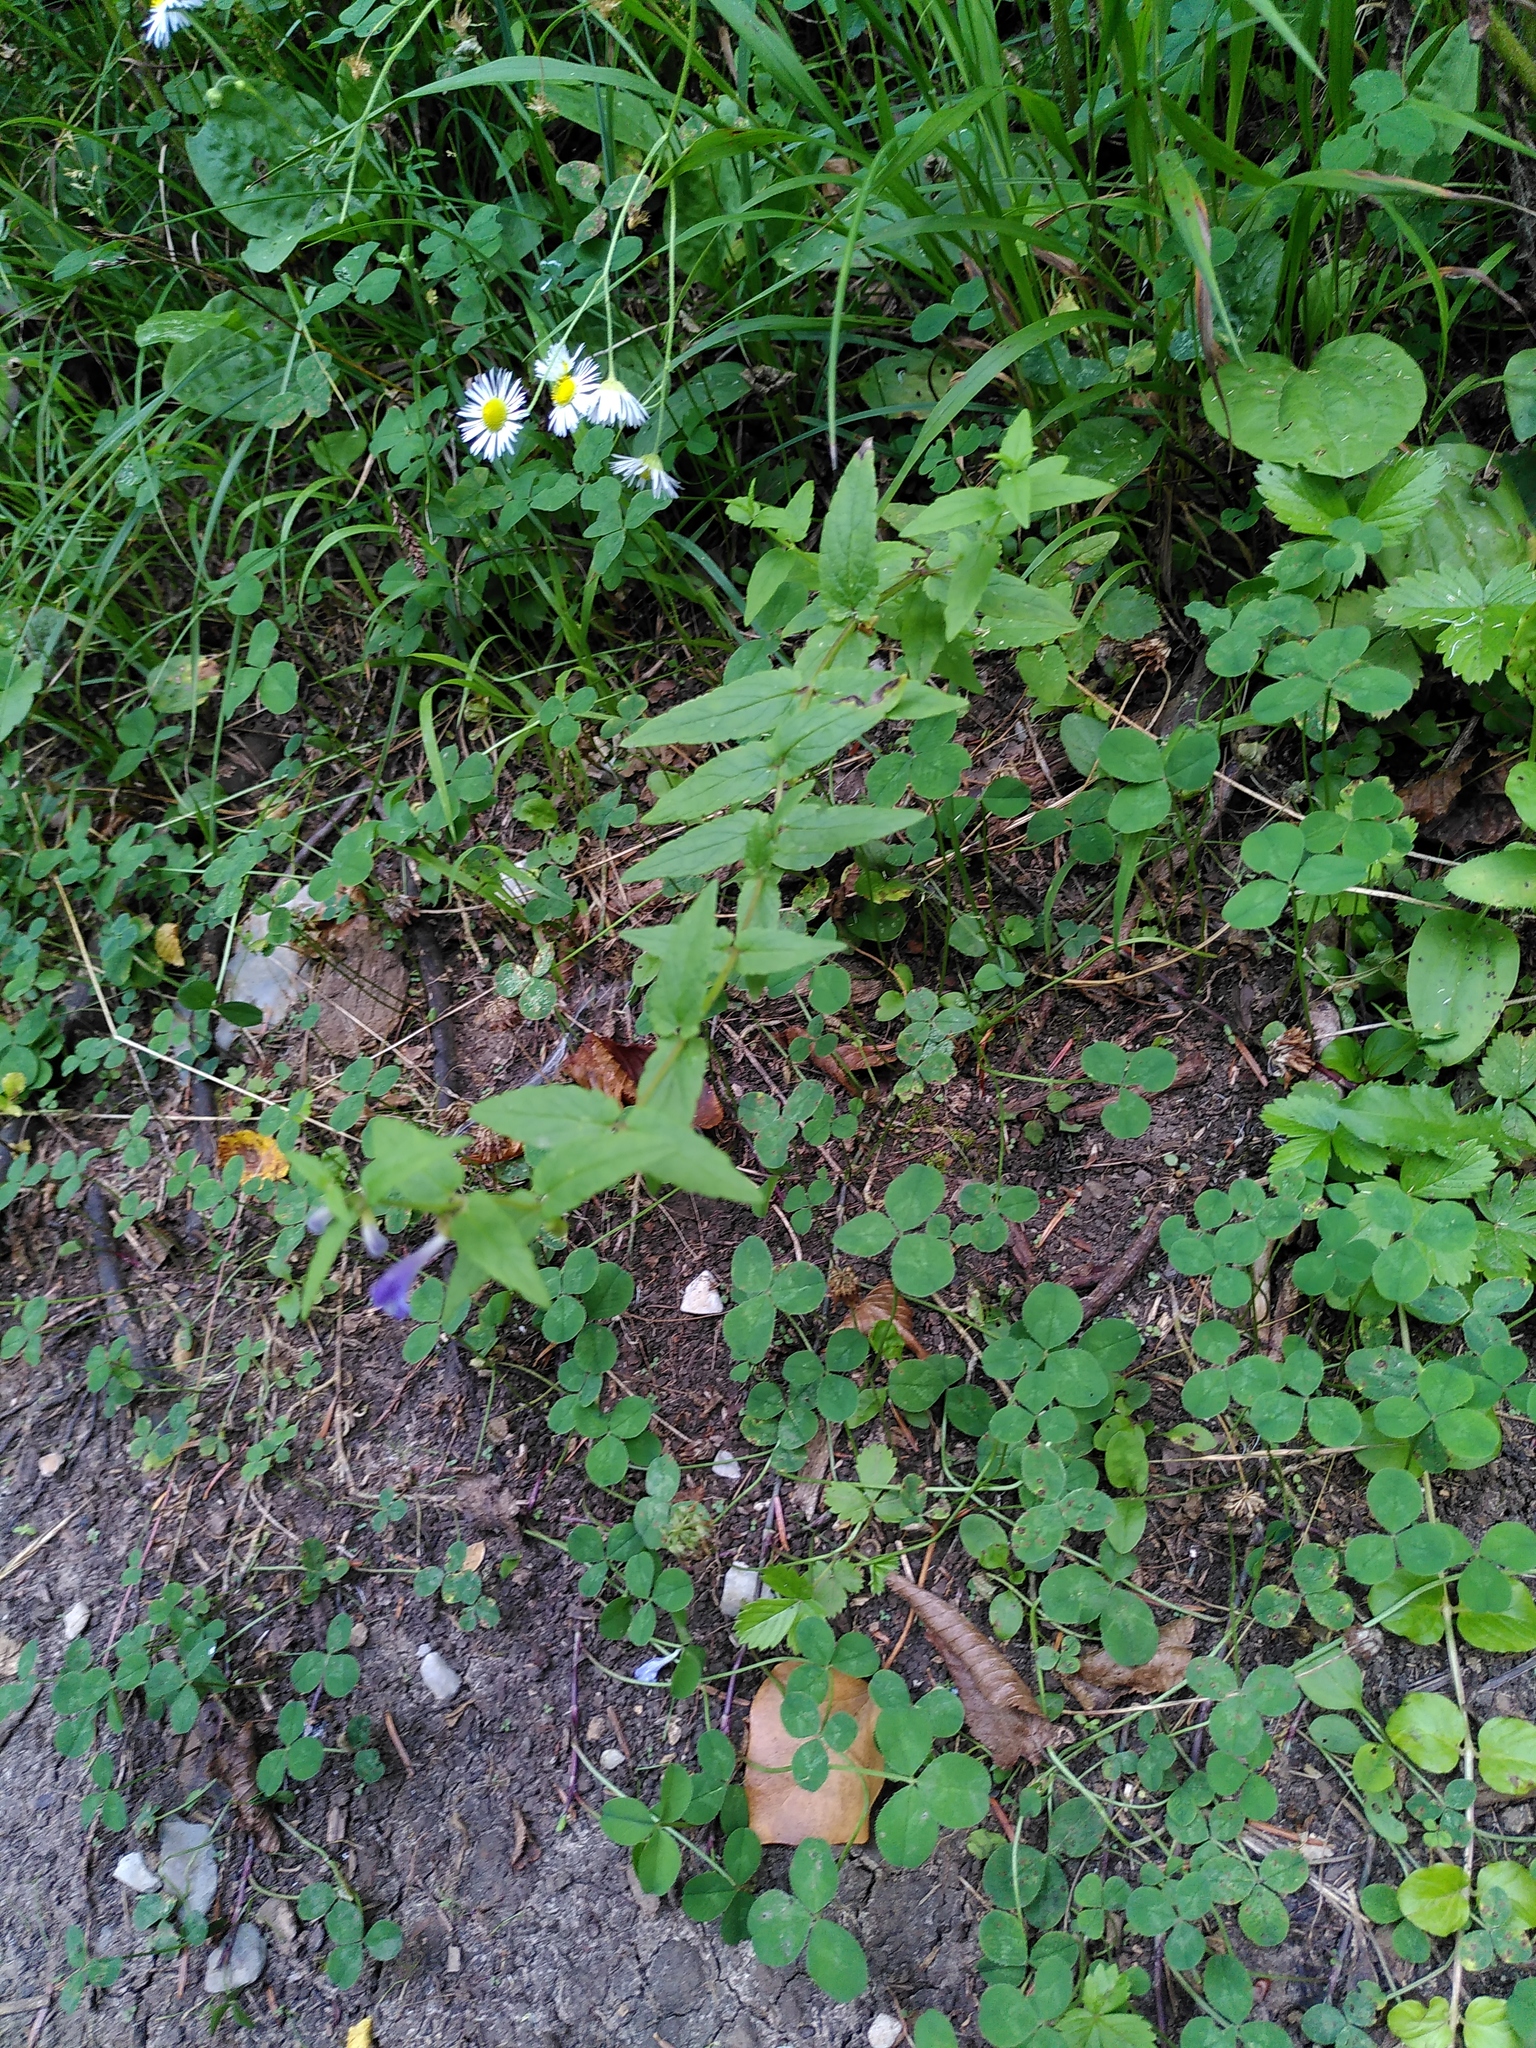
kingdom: Plantae
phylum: Tracheophyta
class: Magnoliopsida
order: Lamiales
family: Lamiaceae
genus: Scutellaria
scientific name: Scutellaria galericulata
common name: Skullcap
